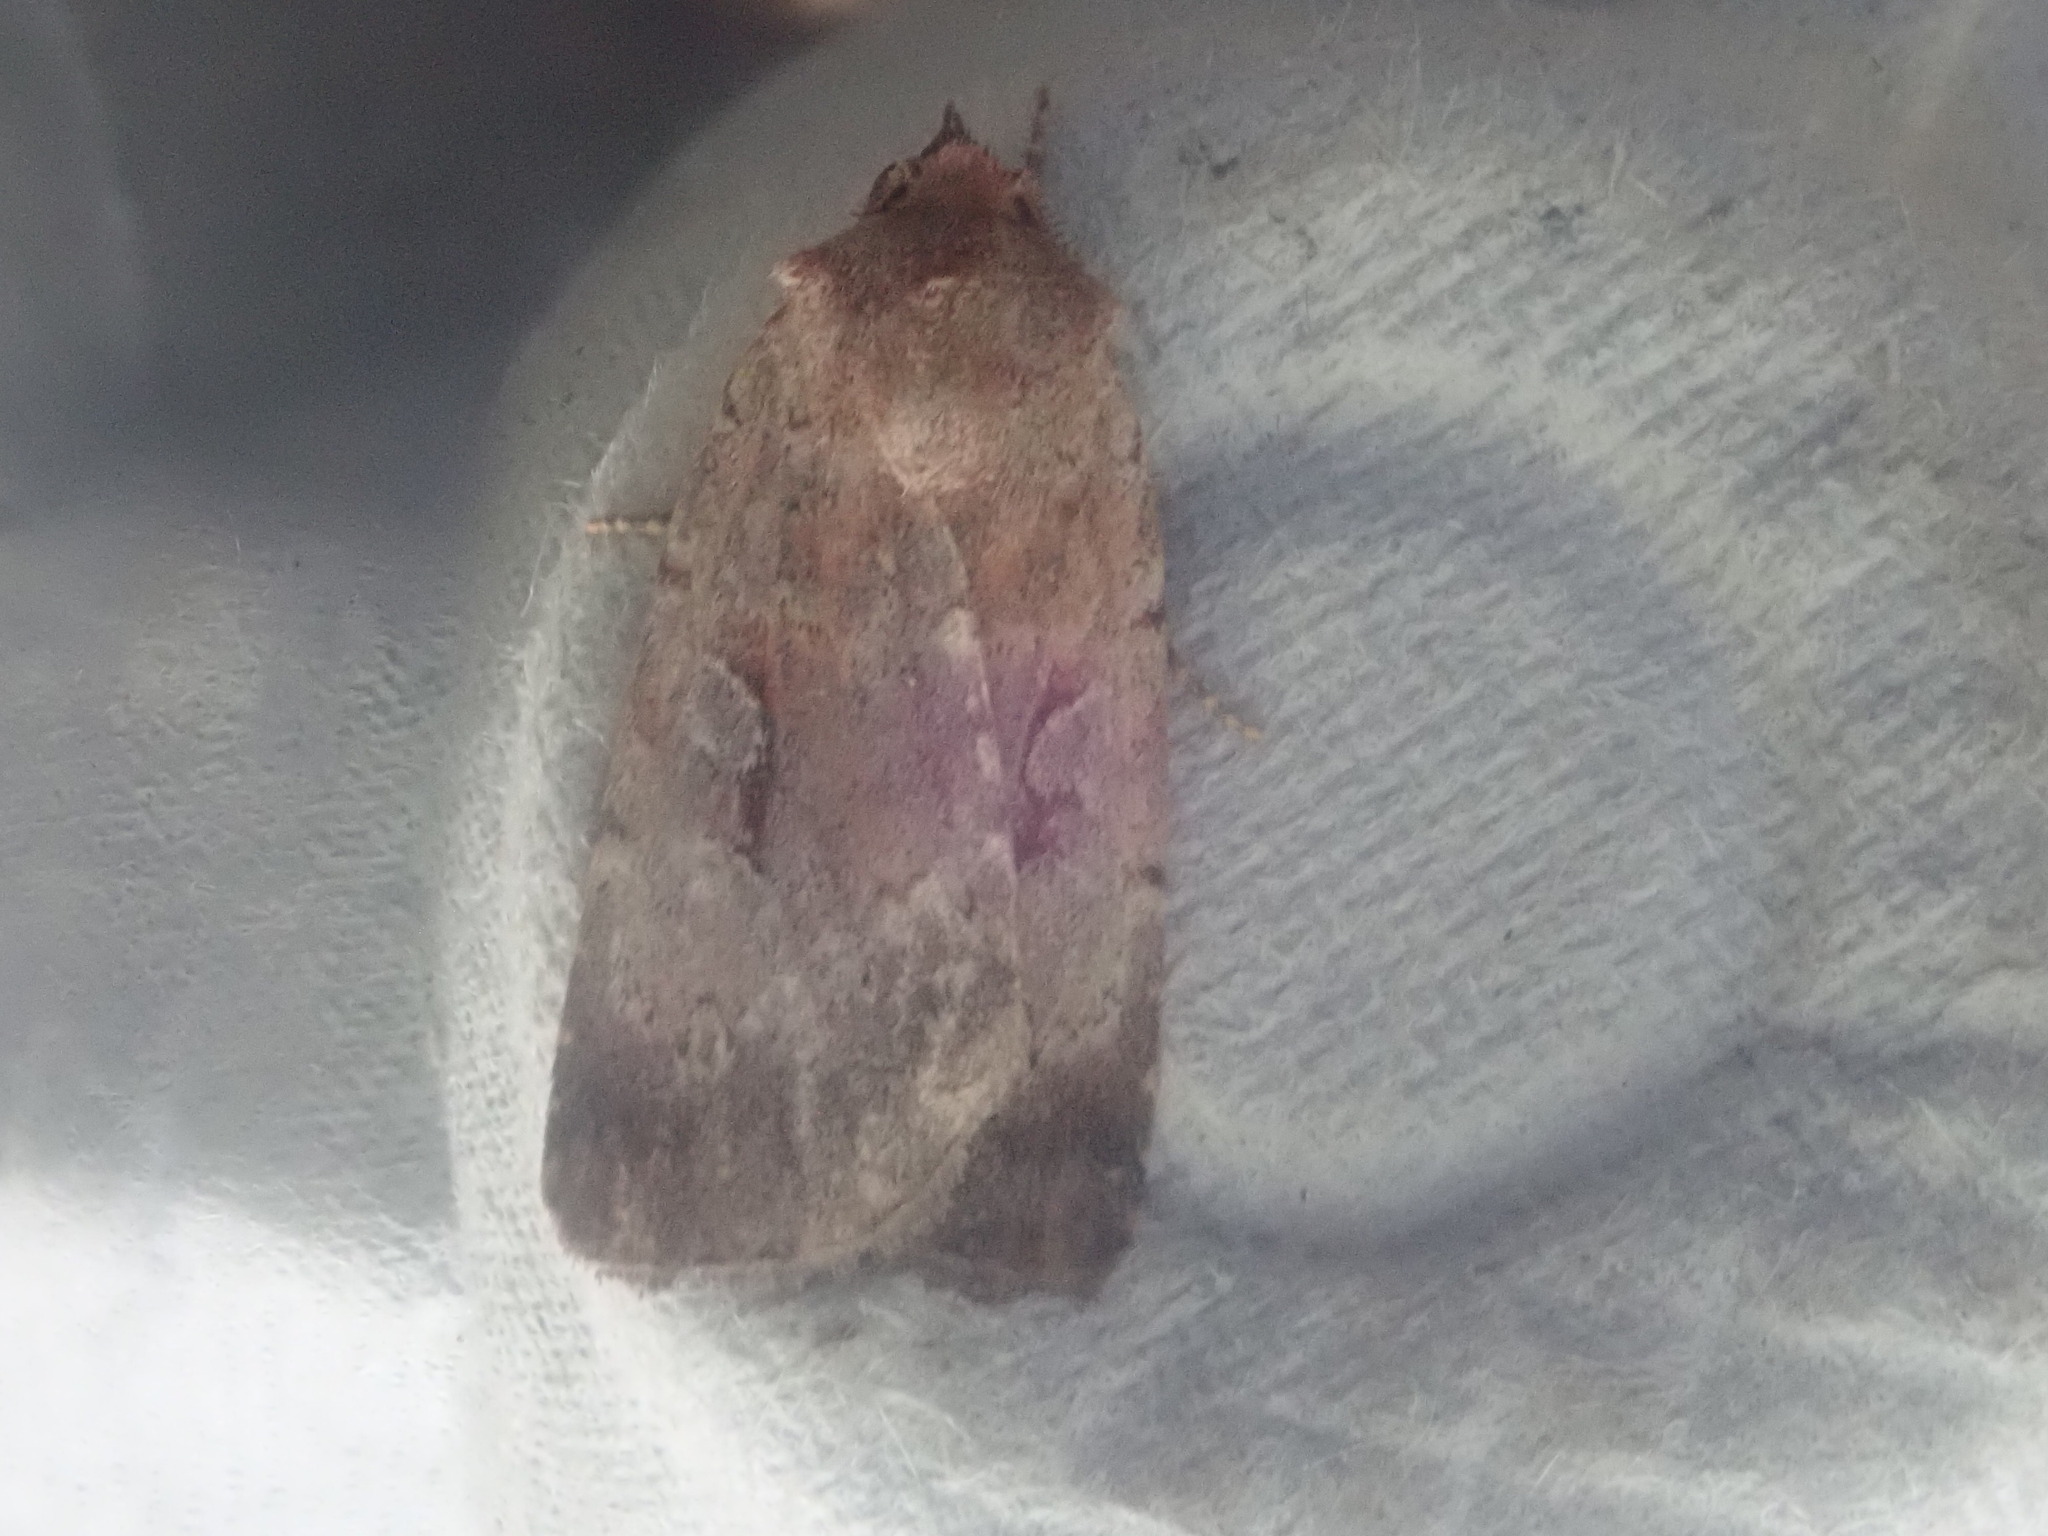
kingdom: Animalia
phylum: Arthropoda
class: Insecta
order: Lepidoptera
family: Noctuidae
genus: Xestia
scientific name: Xestia dilucida
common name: Dull reddish dart
